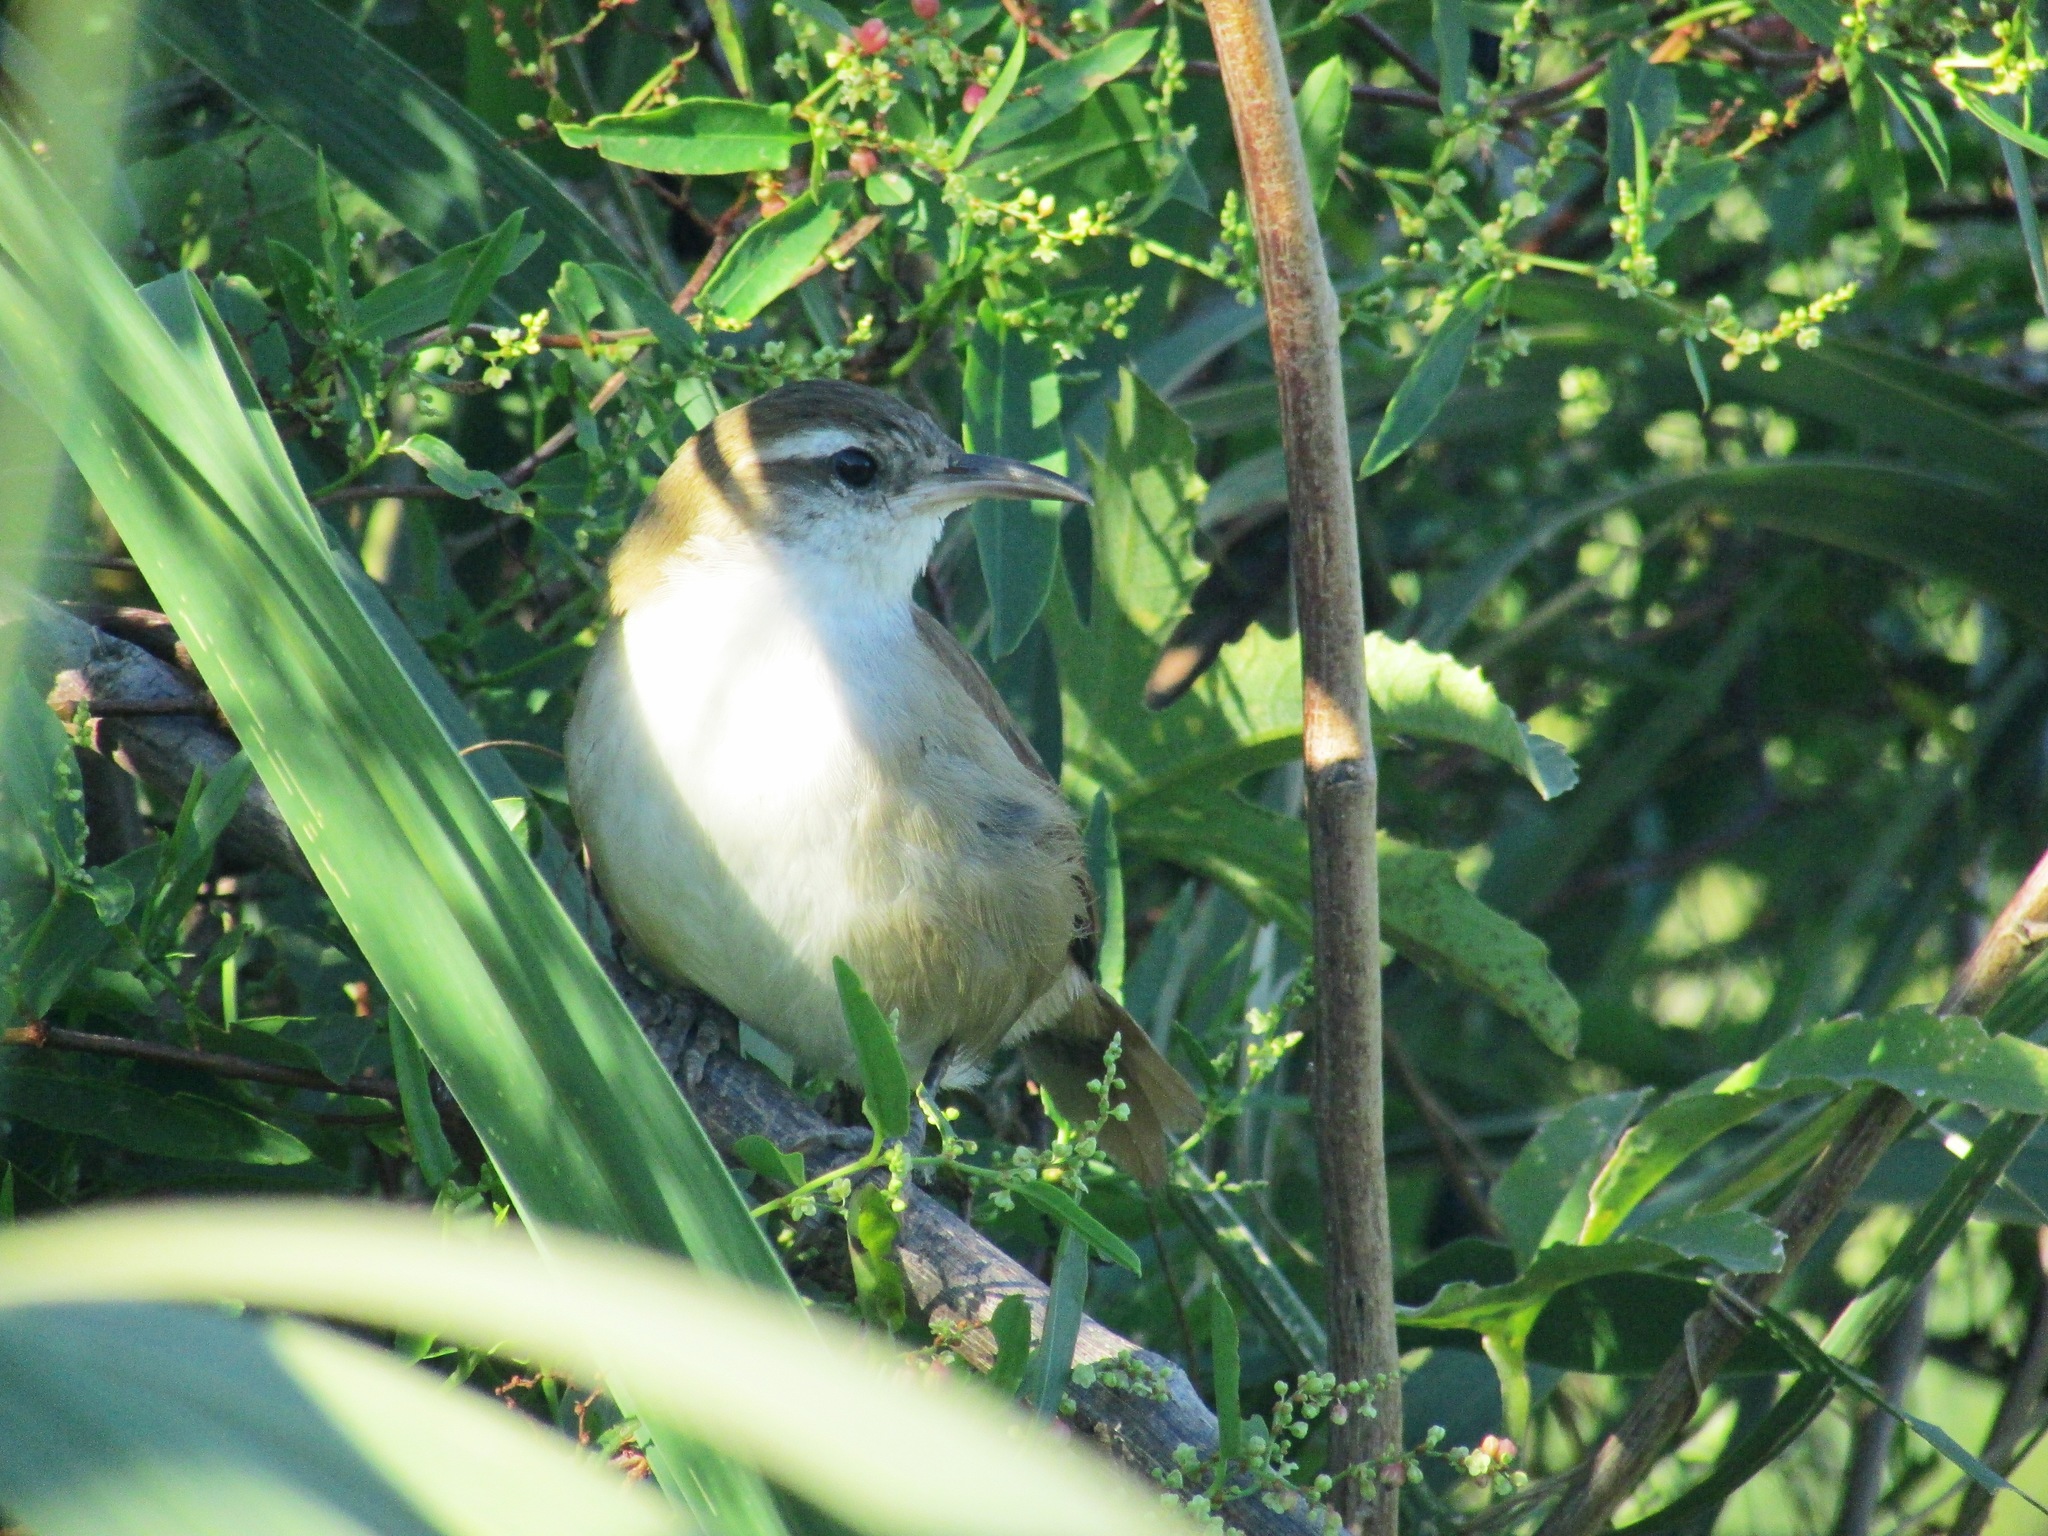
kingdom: Animalia
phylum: Chordata
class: Aves
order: Passeriformes
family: Furnariidae
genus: Limnornis
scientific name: Limnornis curvirostris
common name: Curve-billed reedhaunter
